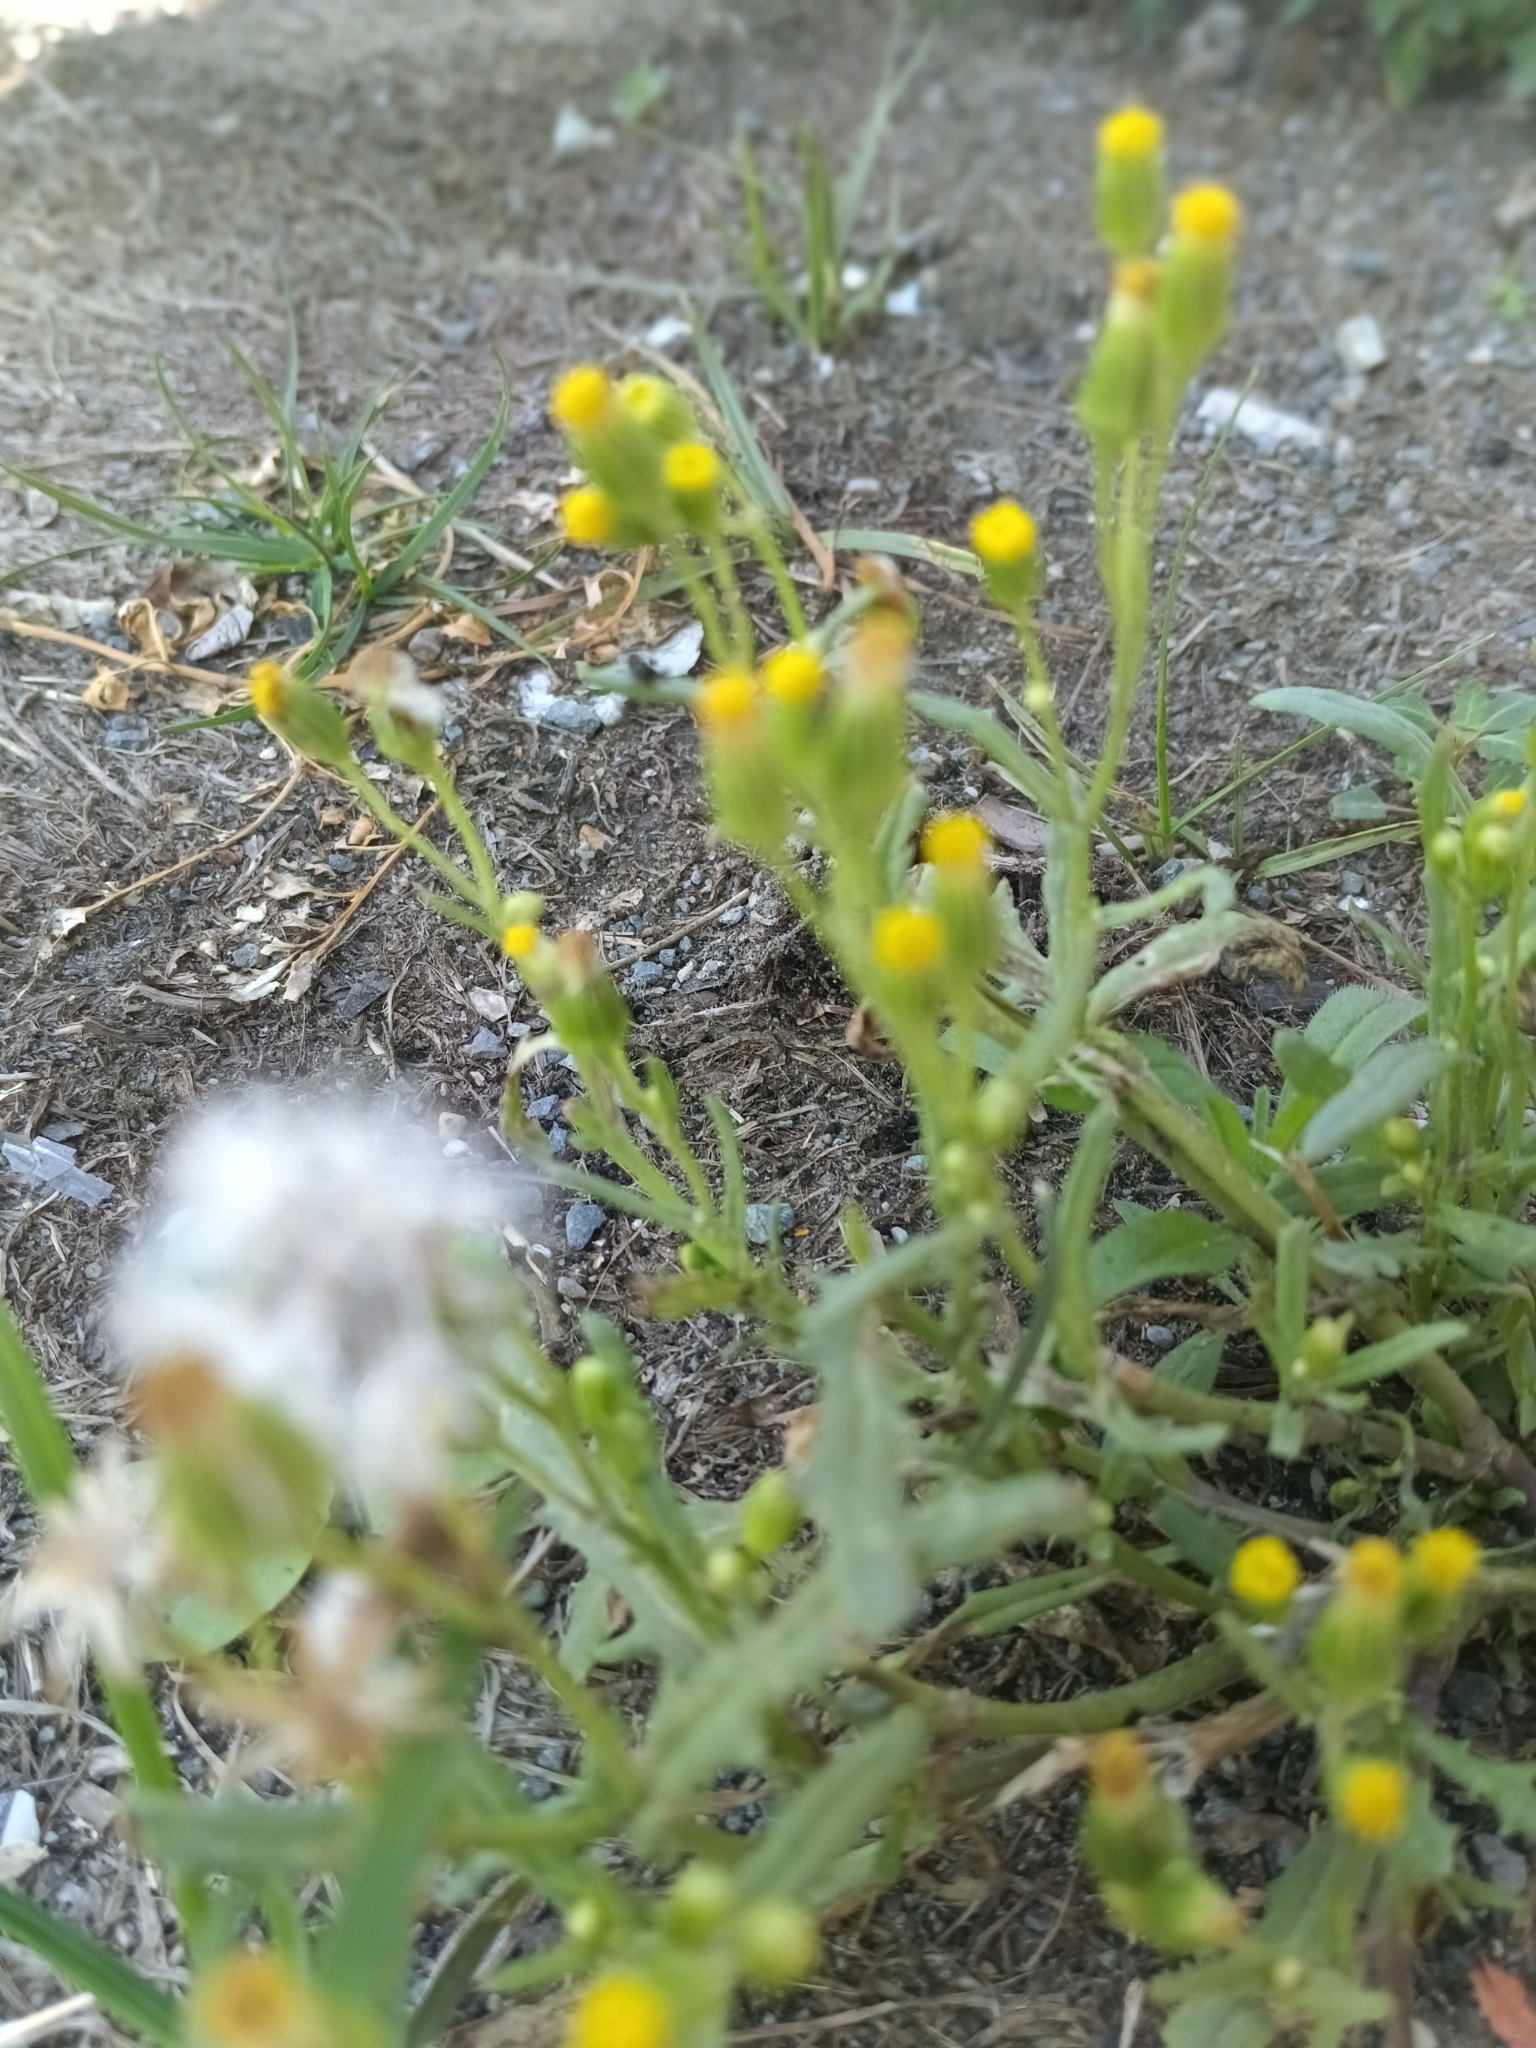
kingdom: Plantae
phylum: Tracheophyta
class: Magnoliopsida
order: Asterales
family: Asteraceae
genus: Senecio
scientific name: Senecio dubitabilis
